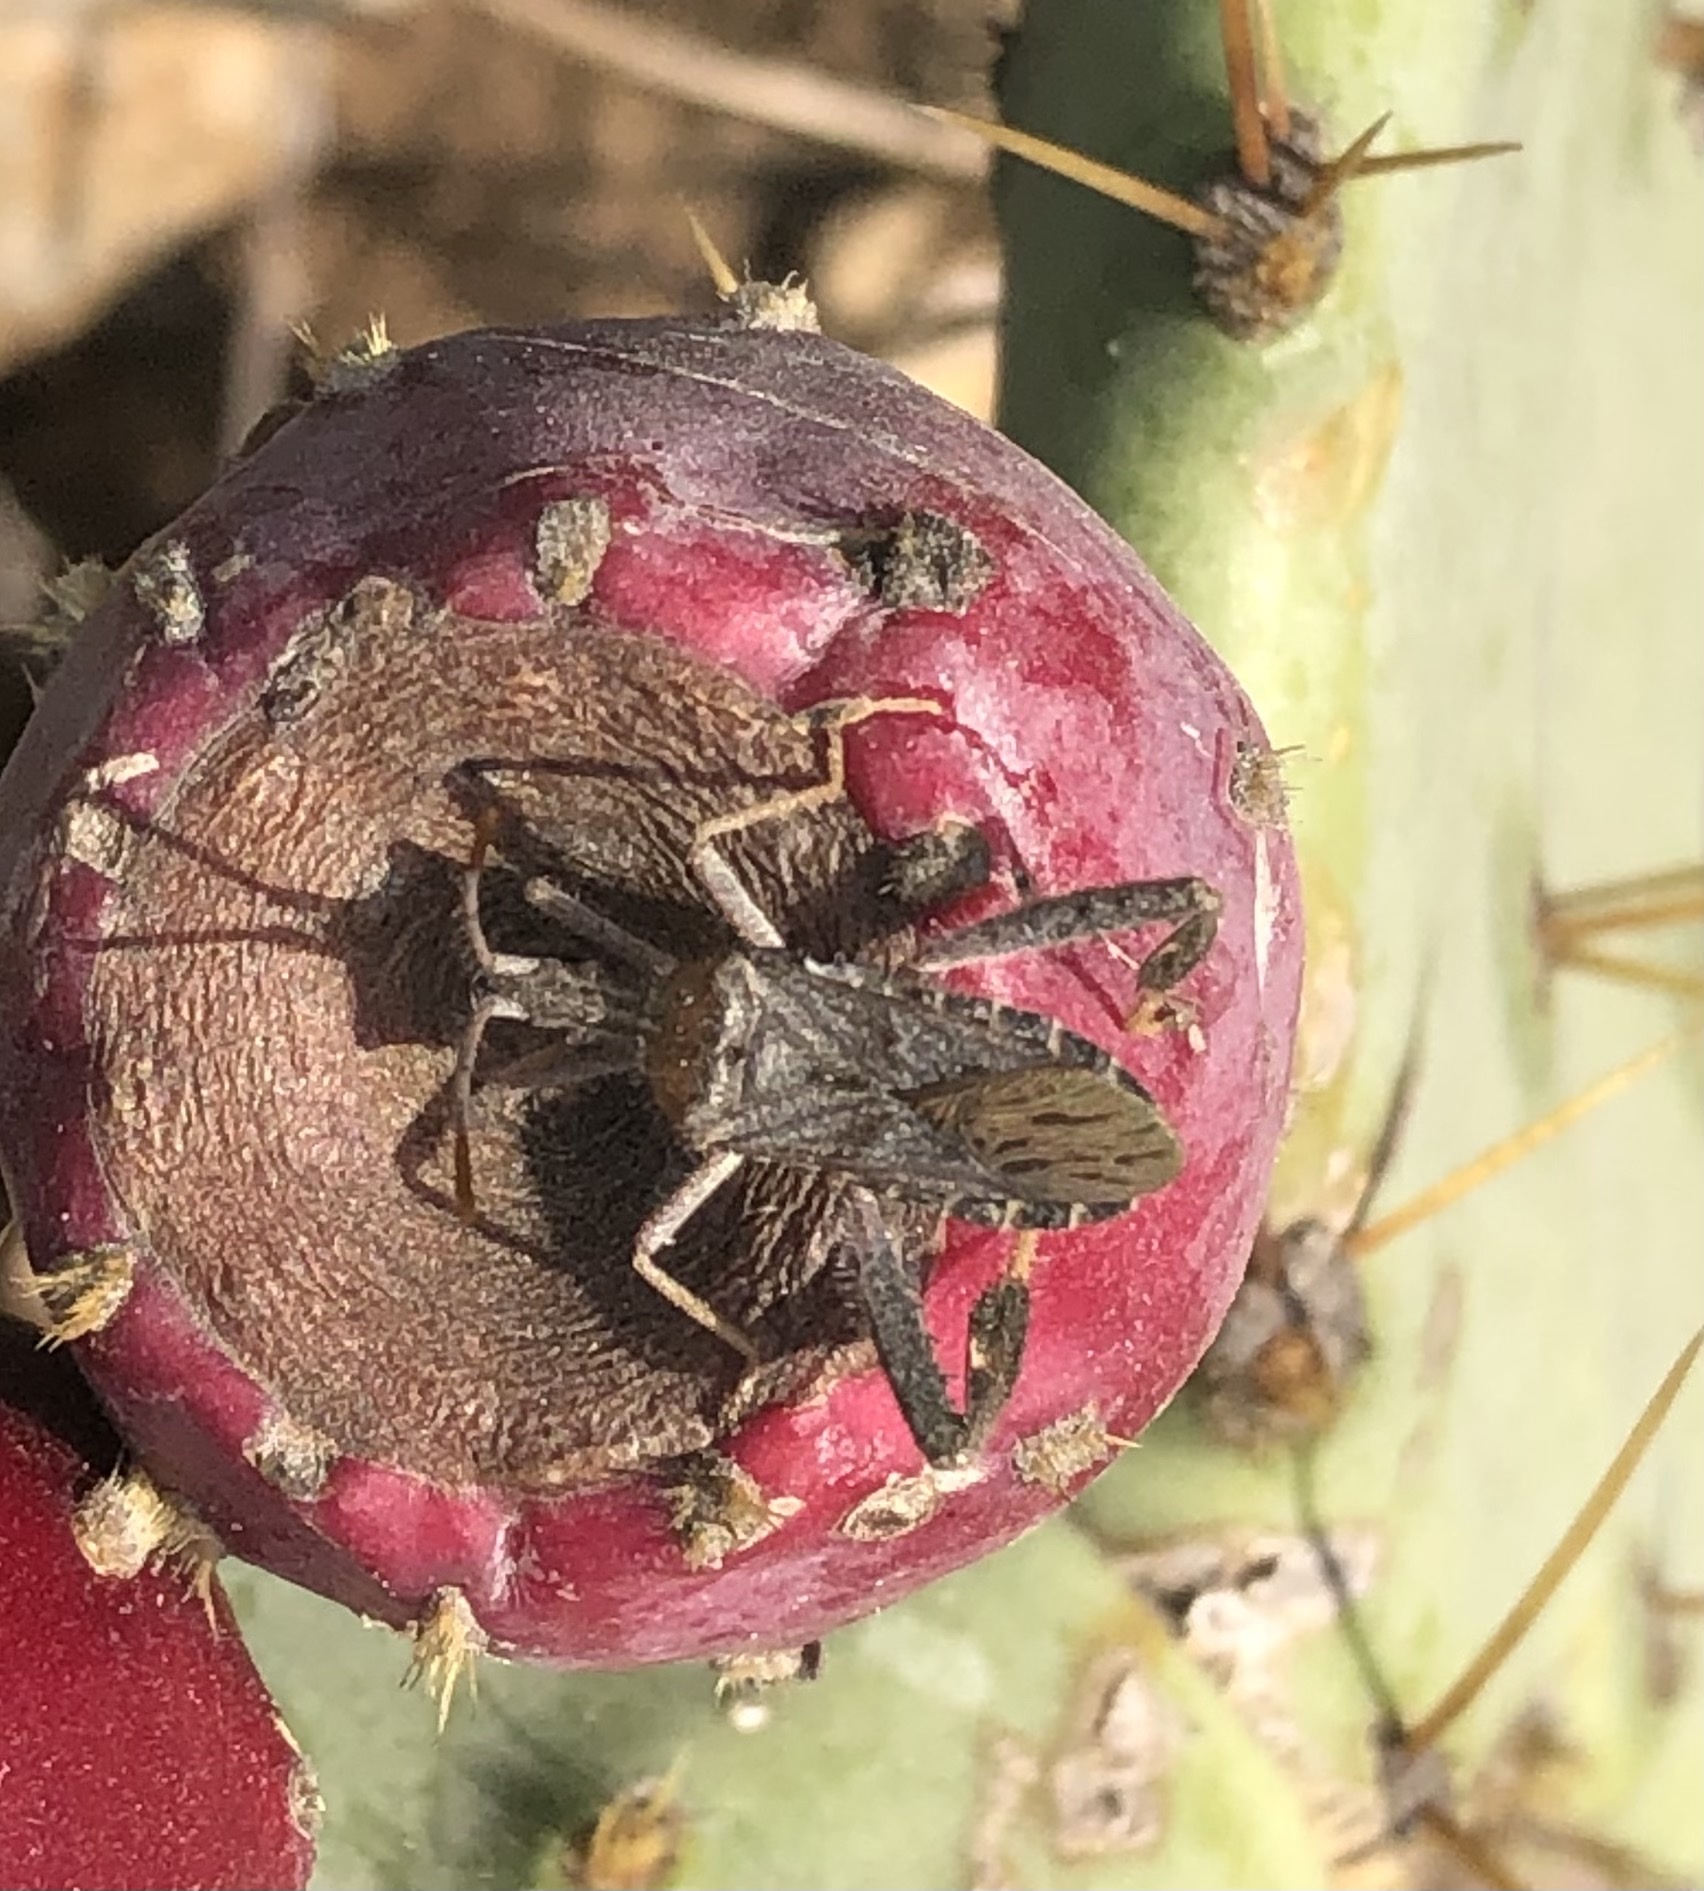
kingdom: Animalia
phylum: Arthropoda
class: Insecta
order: Hemiptera
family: Coreidae
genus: Narnia
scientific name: Narnia femorata
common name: Leaf-footed cactus bug
